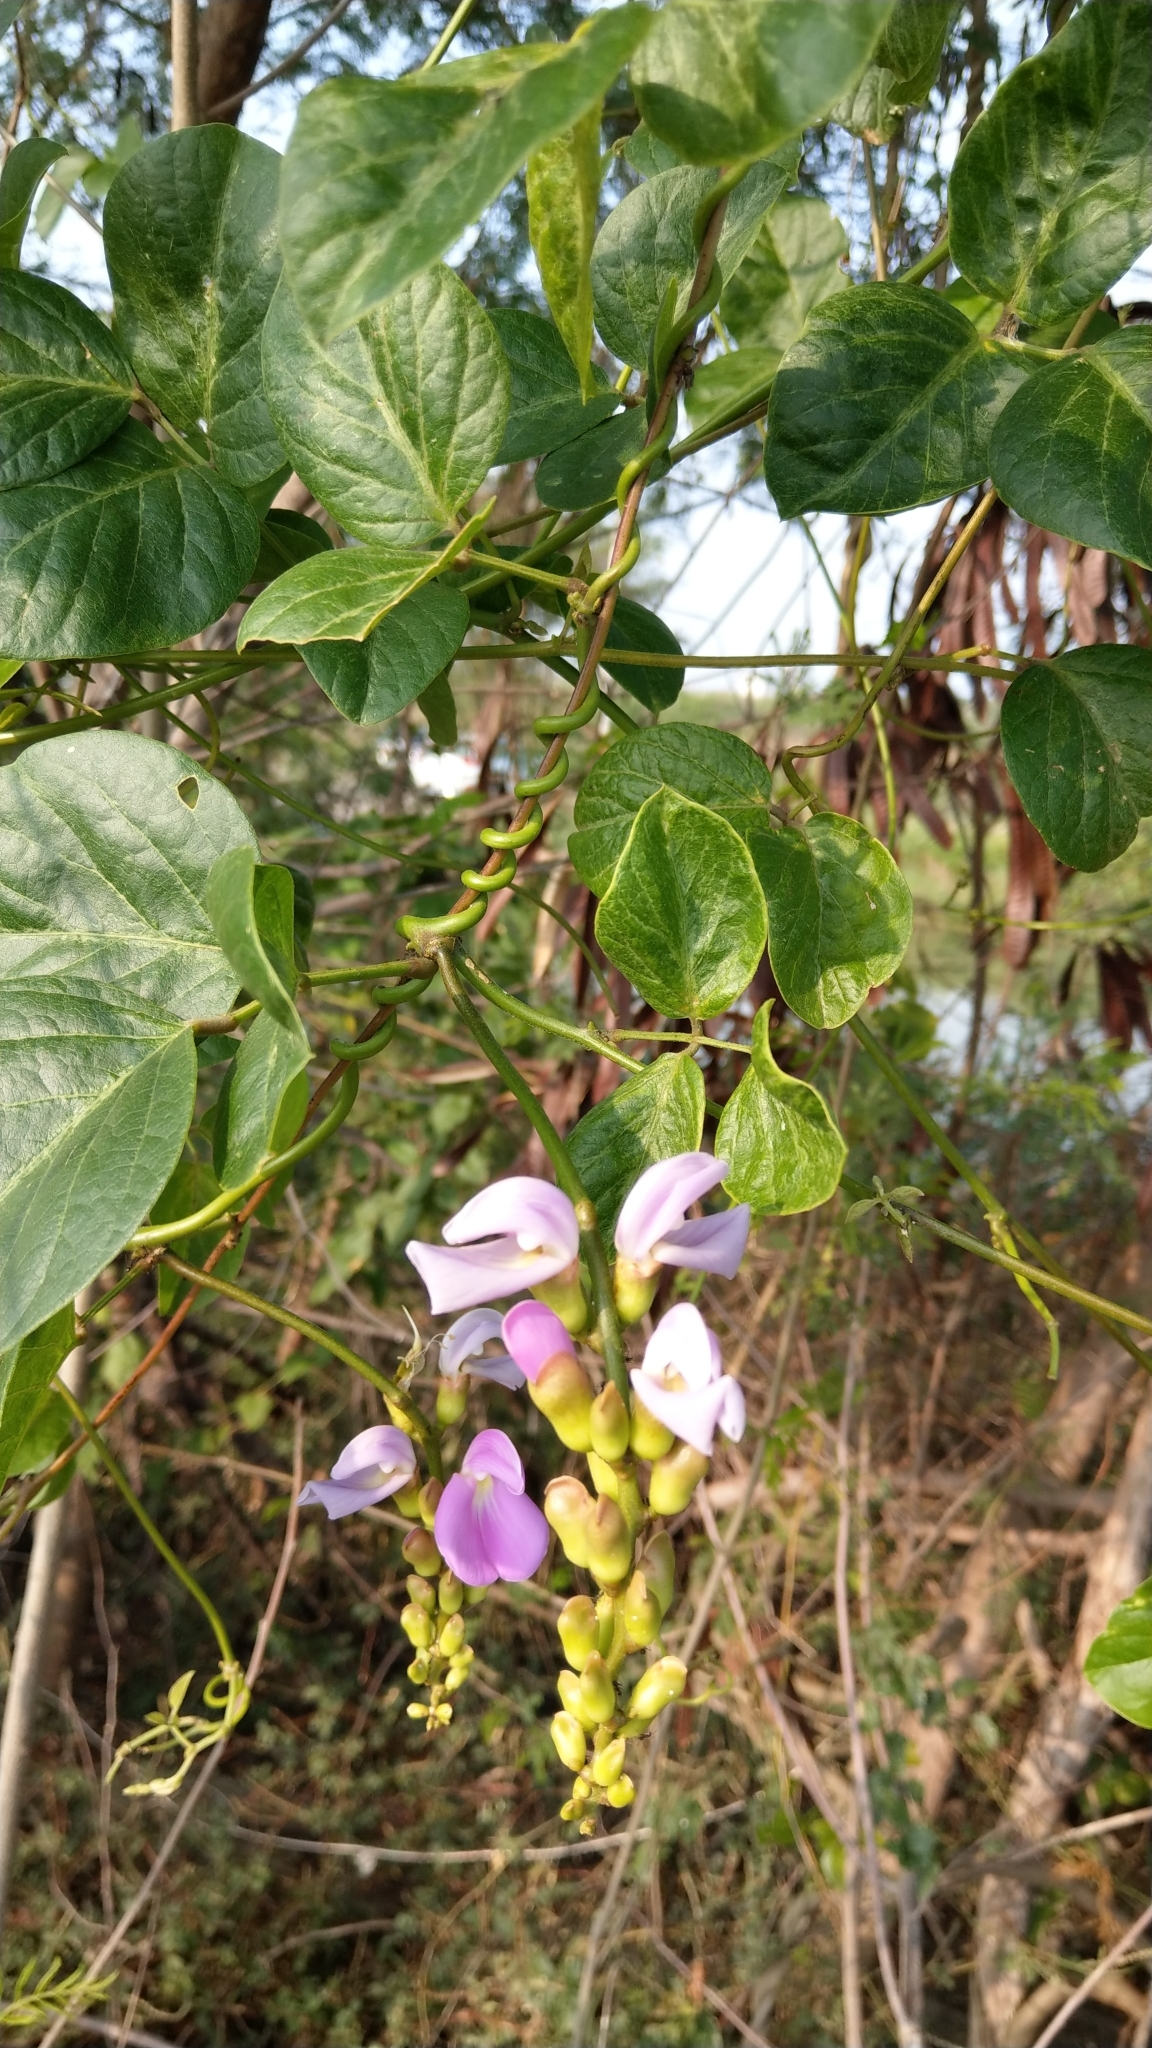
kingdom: Plantae
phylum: Tracheophyta
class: Magnoliopsida
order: Fabales
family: Fabaceae
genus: Canavalia
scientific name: Canavalia lineata
